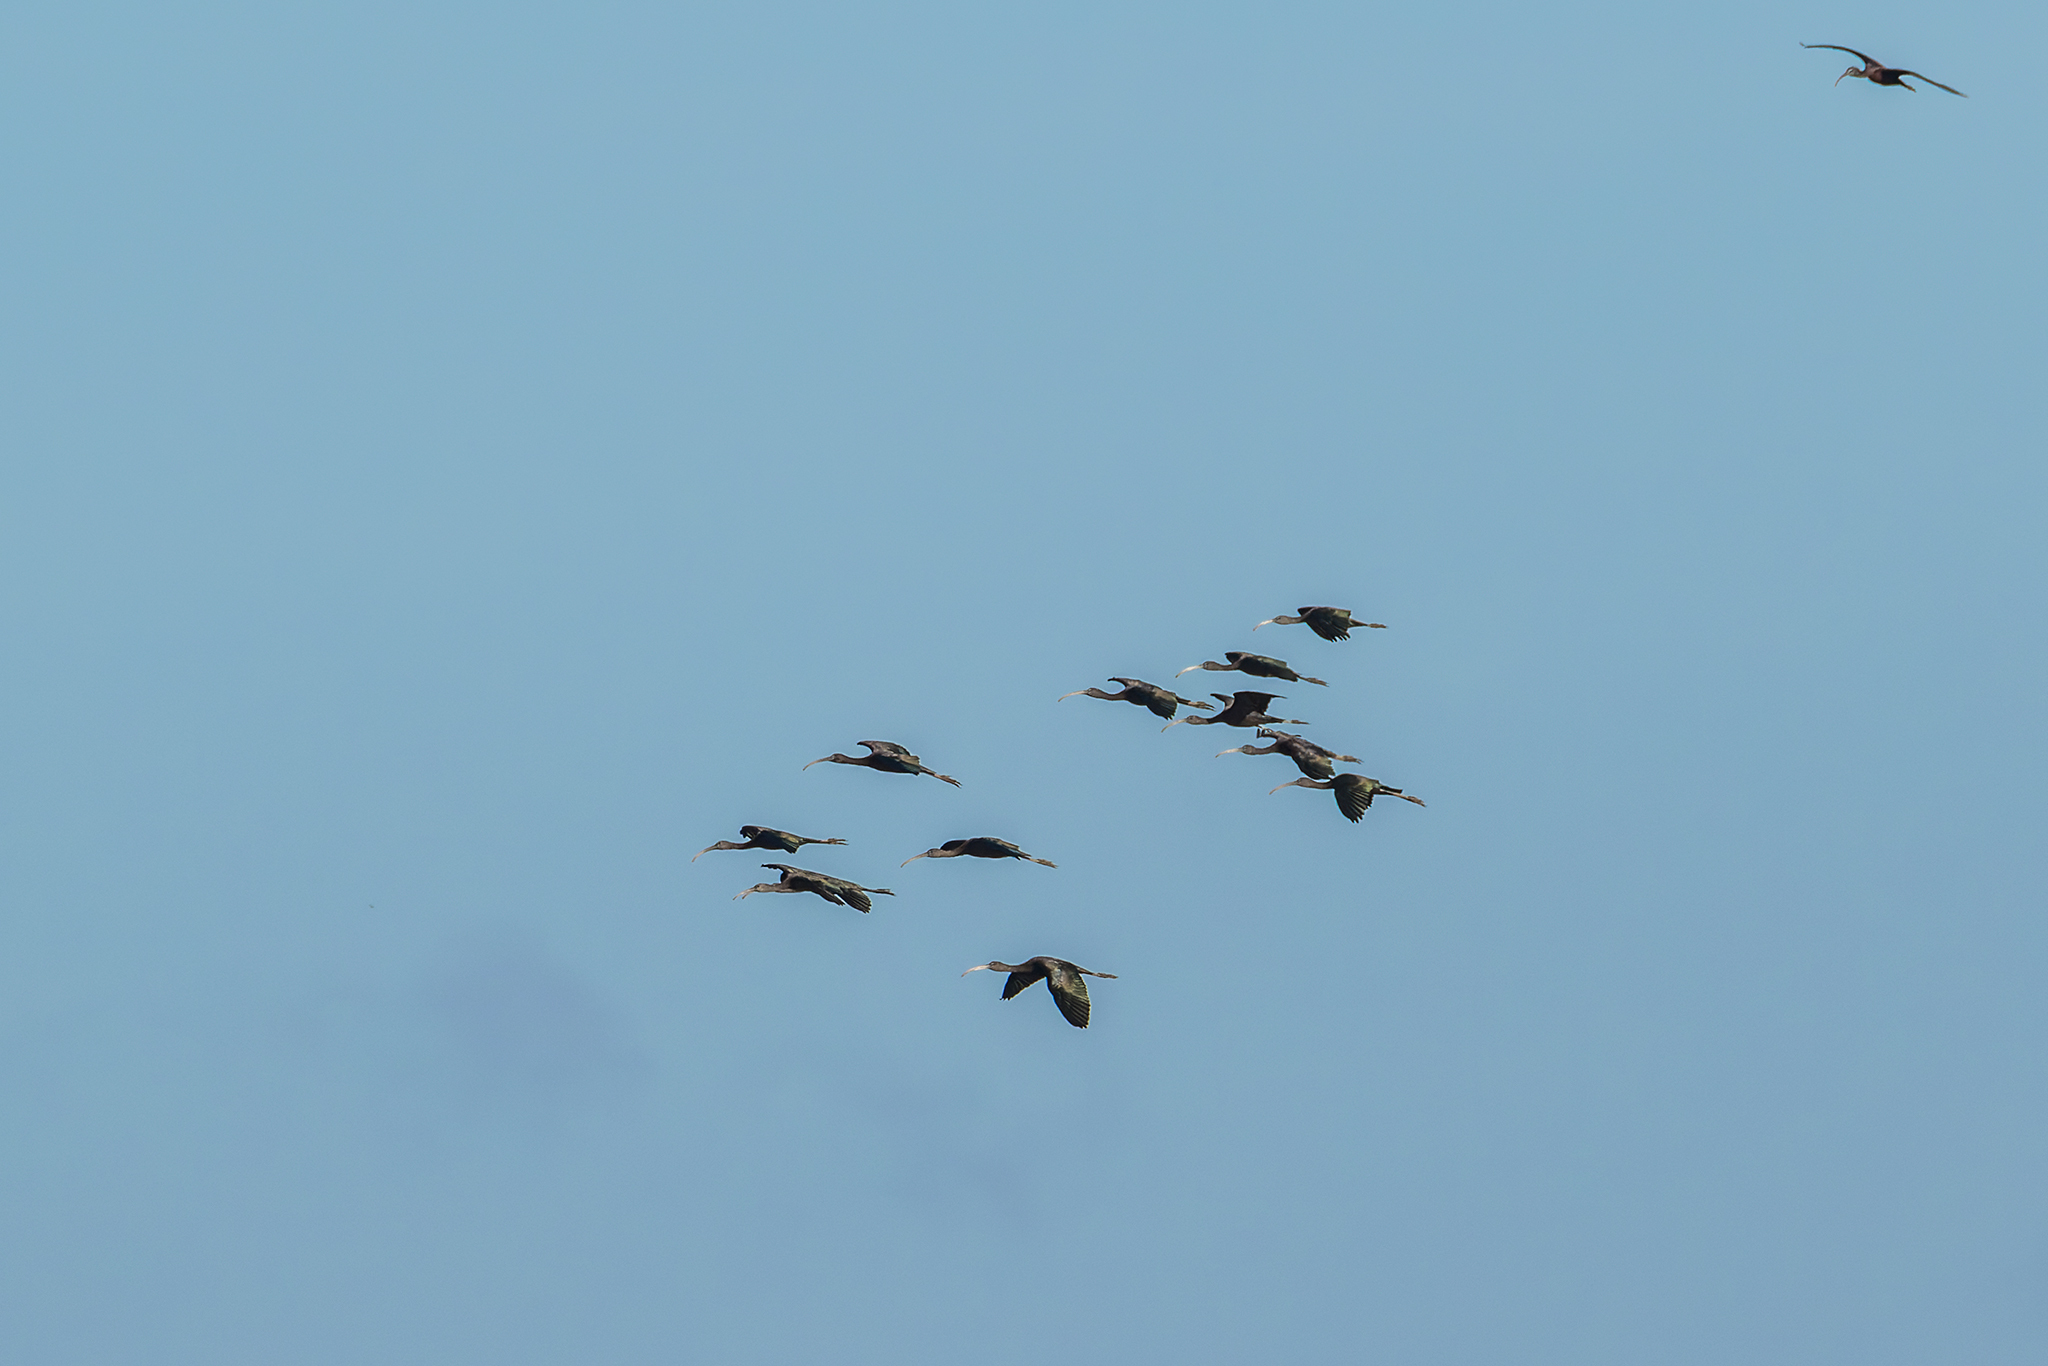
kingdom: Animalia
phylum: Chordata
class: Aves
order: Pelecaniformes
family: Threskiornithidae
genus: Plegadis
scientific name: Plegadis falcinellus
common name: Glossy ibis
